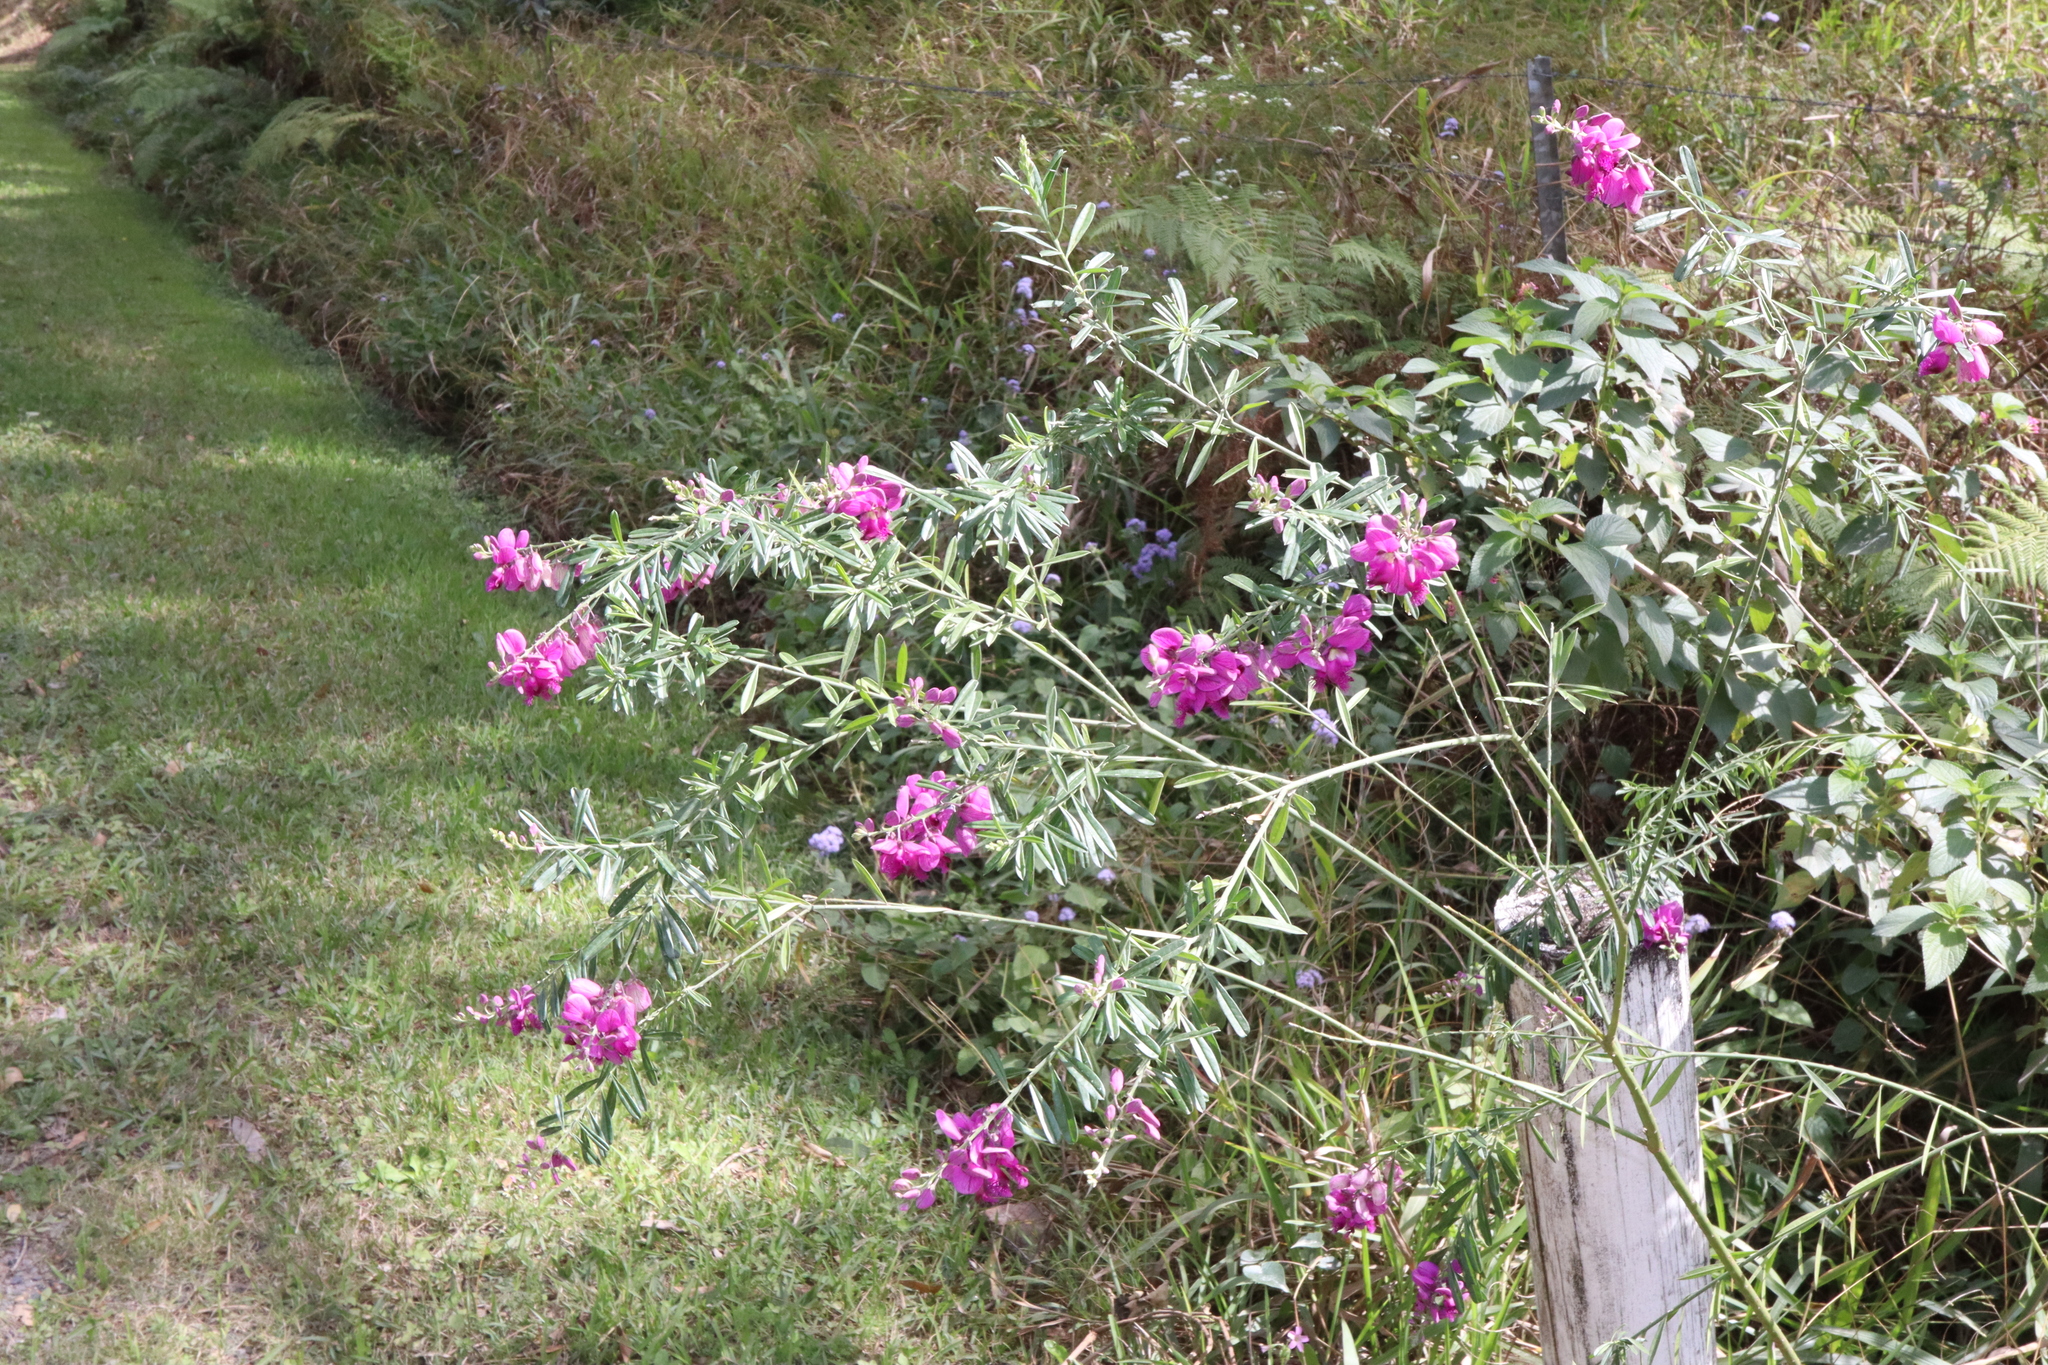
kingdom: Plantae
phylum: Tracheophyta
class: Magnoliopsida
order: Fabales
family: Polygalaceae
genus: Polygala
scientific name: Polygala virgata
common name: Milkwort
